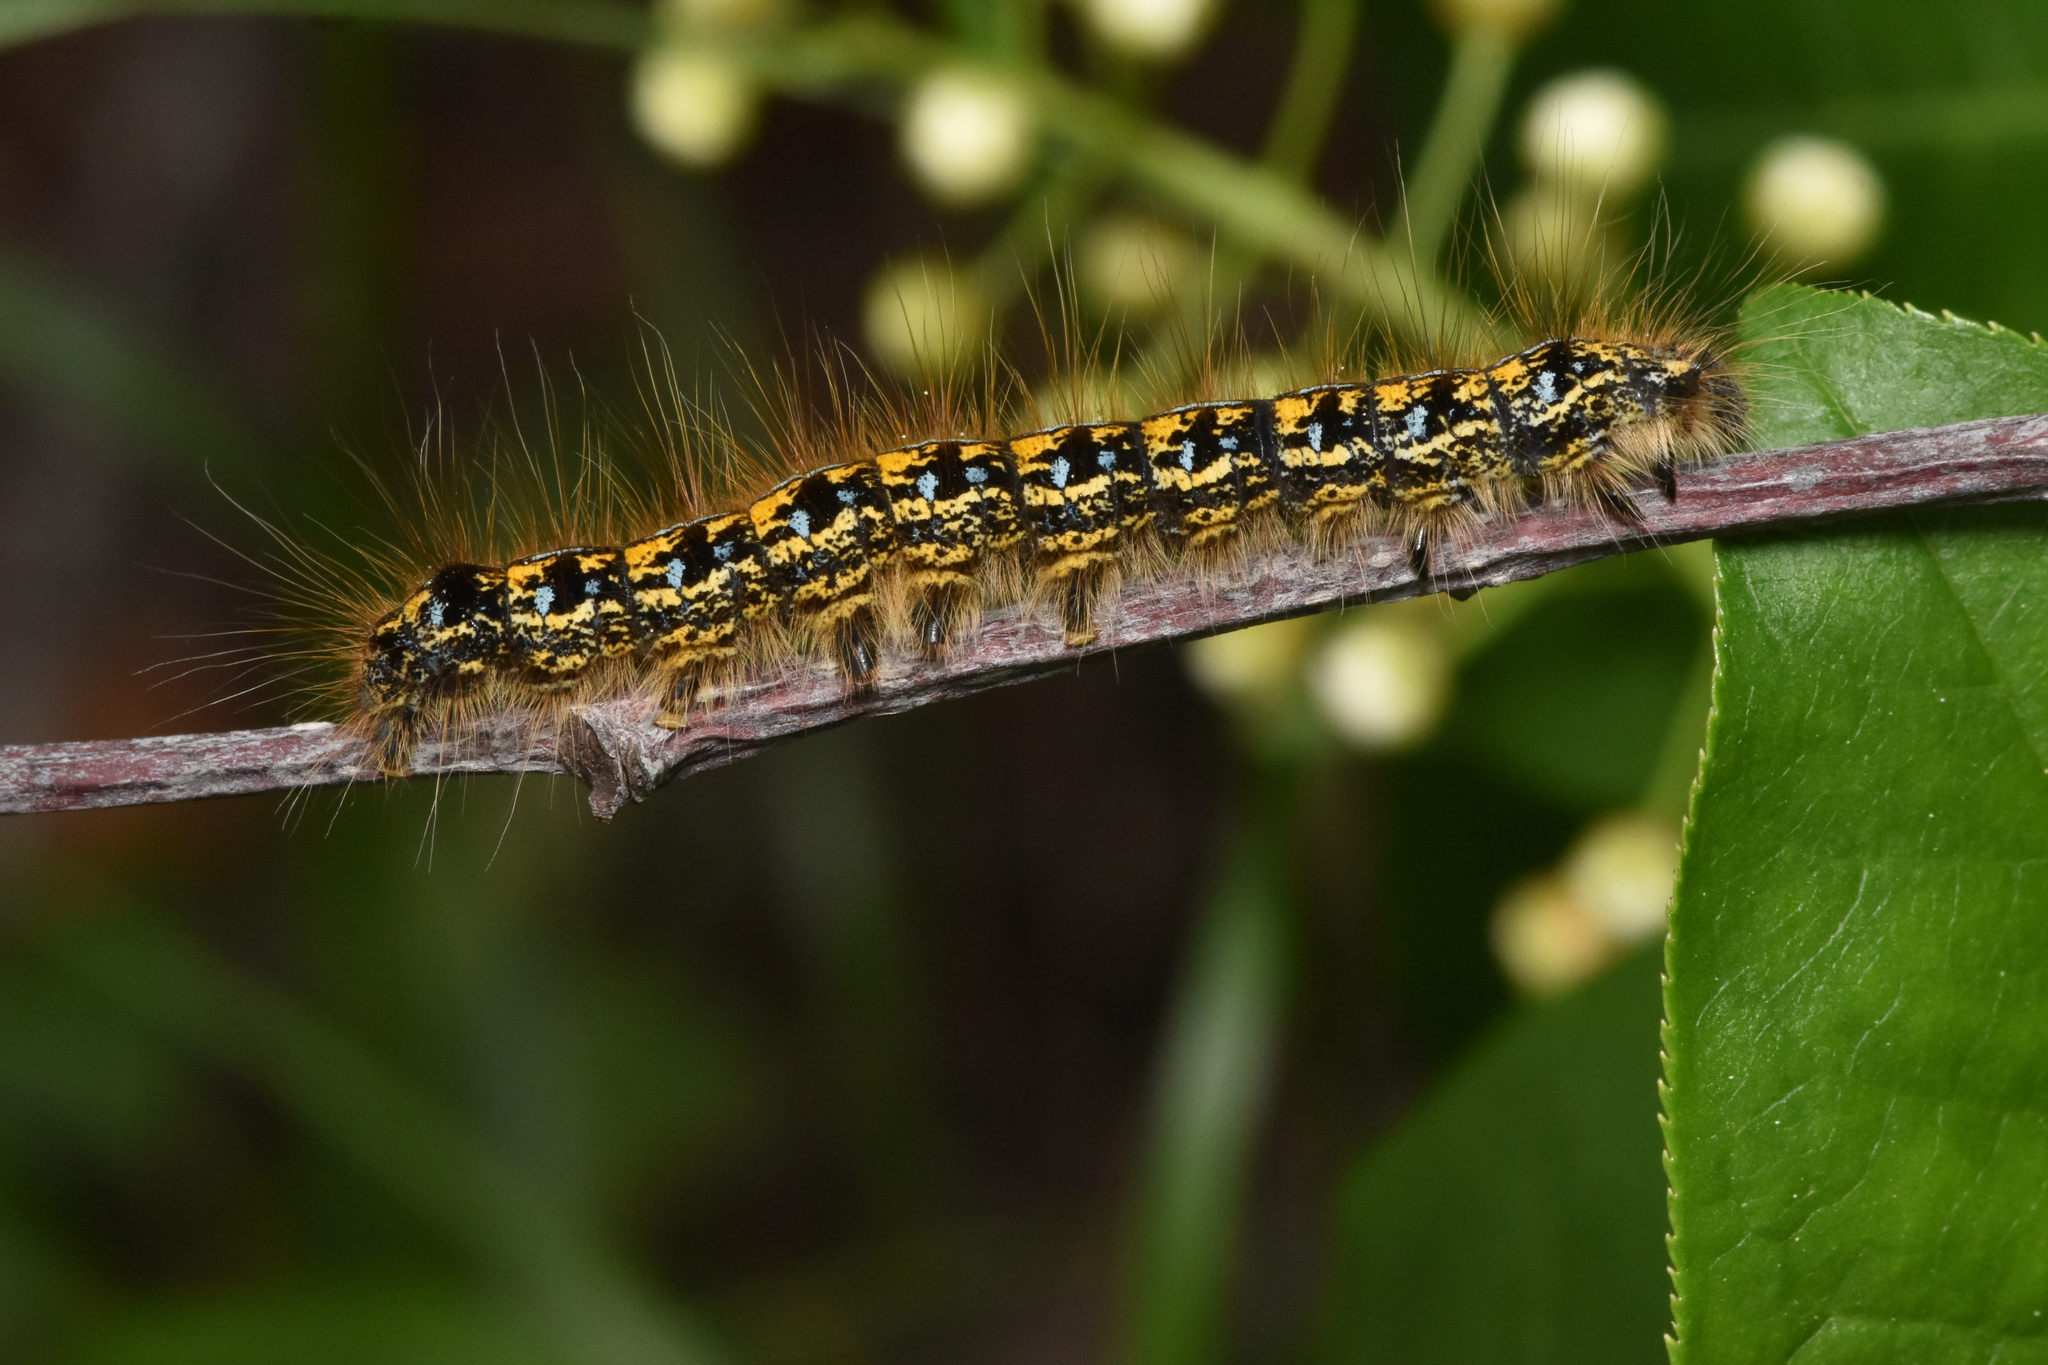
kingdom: Animalia
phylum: Arthropoda
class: Insecta
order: Lepidoptera
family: Lasiocampidae
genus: Malacosoma
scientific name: Malacosoma californica
